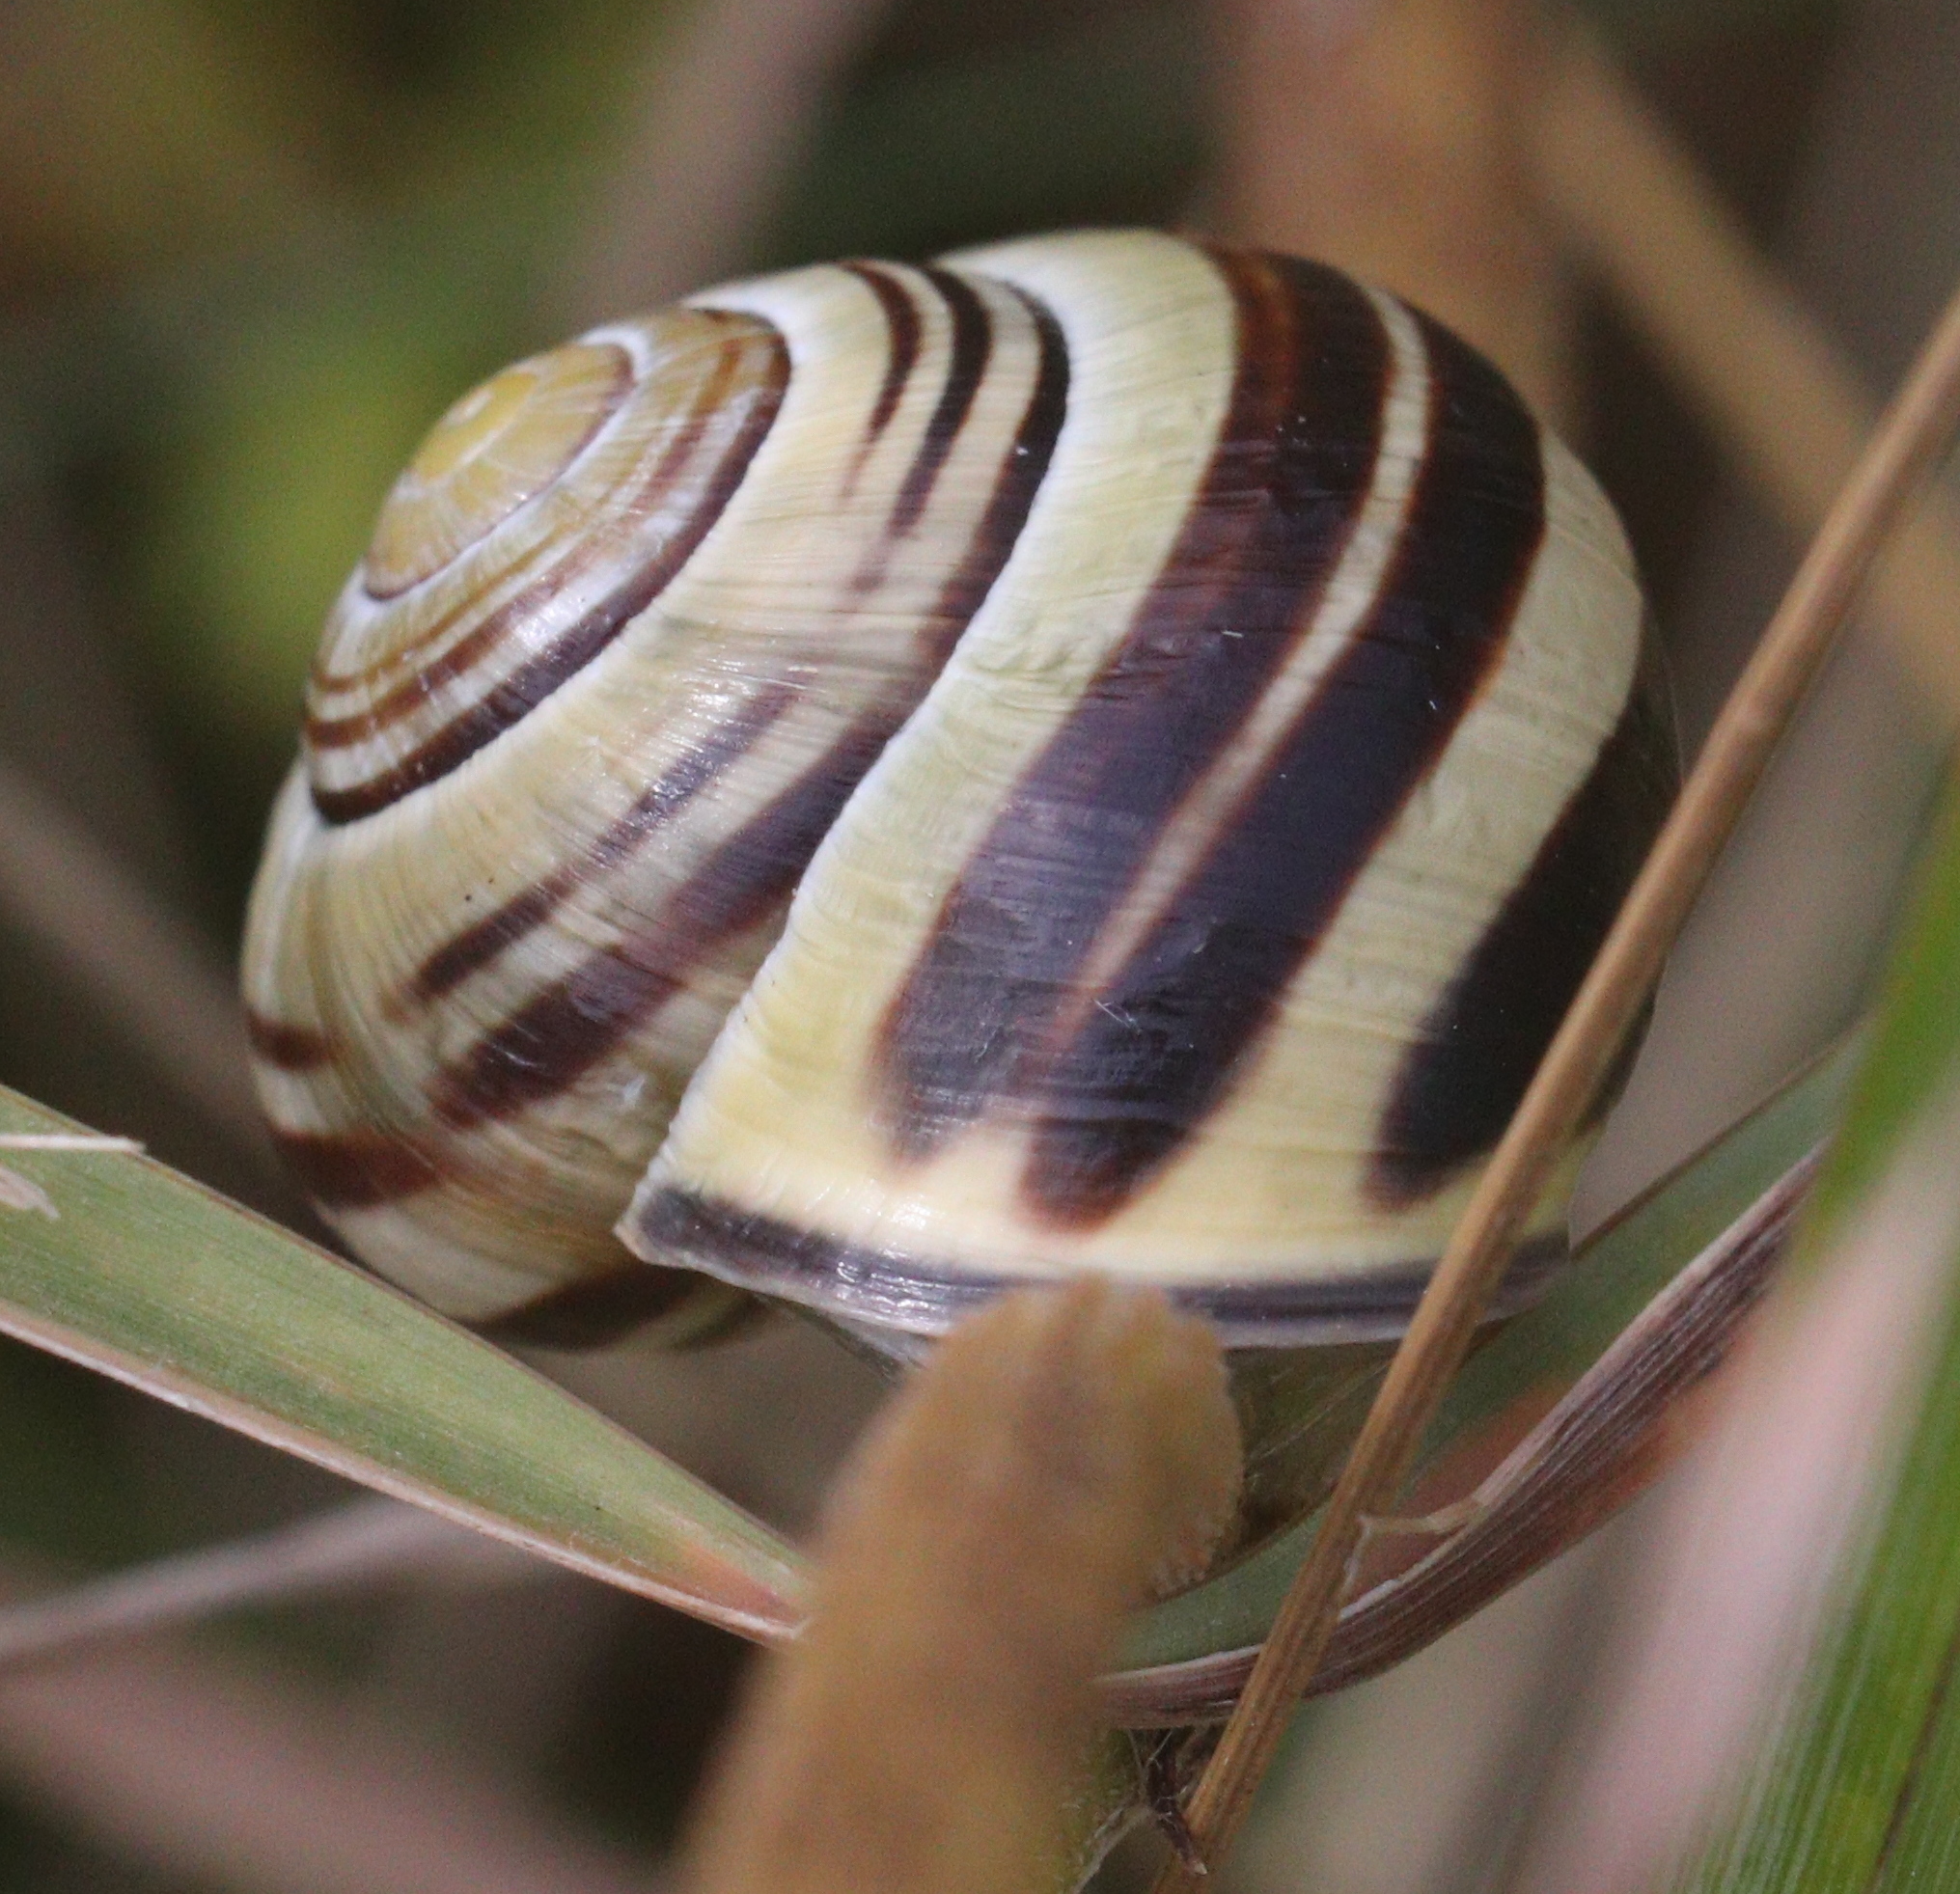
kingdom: Animalia
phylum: Mollusca
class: Gastropoda
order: Stylommatophora
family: Helicidae
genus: Cepaea
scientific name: Cepaea nemoralis
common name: Grovesnail
